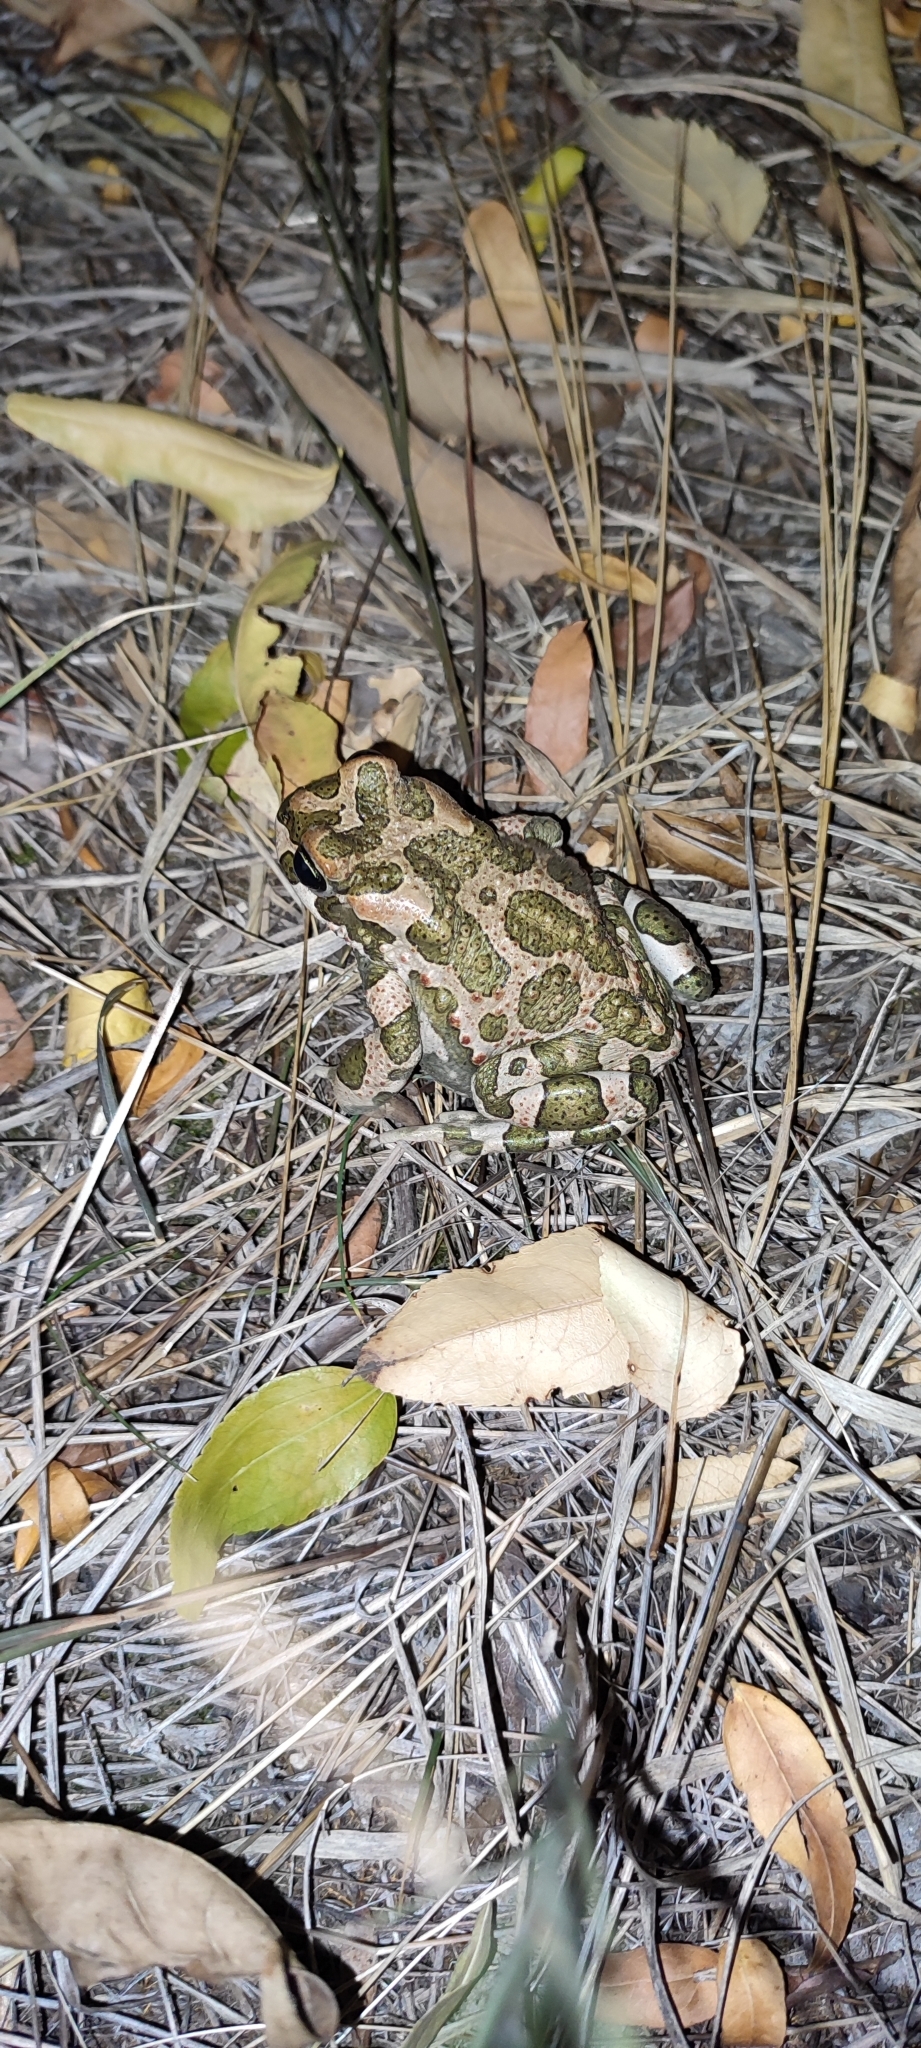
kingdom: Animalia
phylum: Chordata
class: Amphibia
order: Anura
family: Bufonidae
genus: Bufotes
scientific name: Bufotes viridis
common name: European green toad
